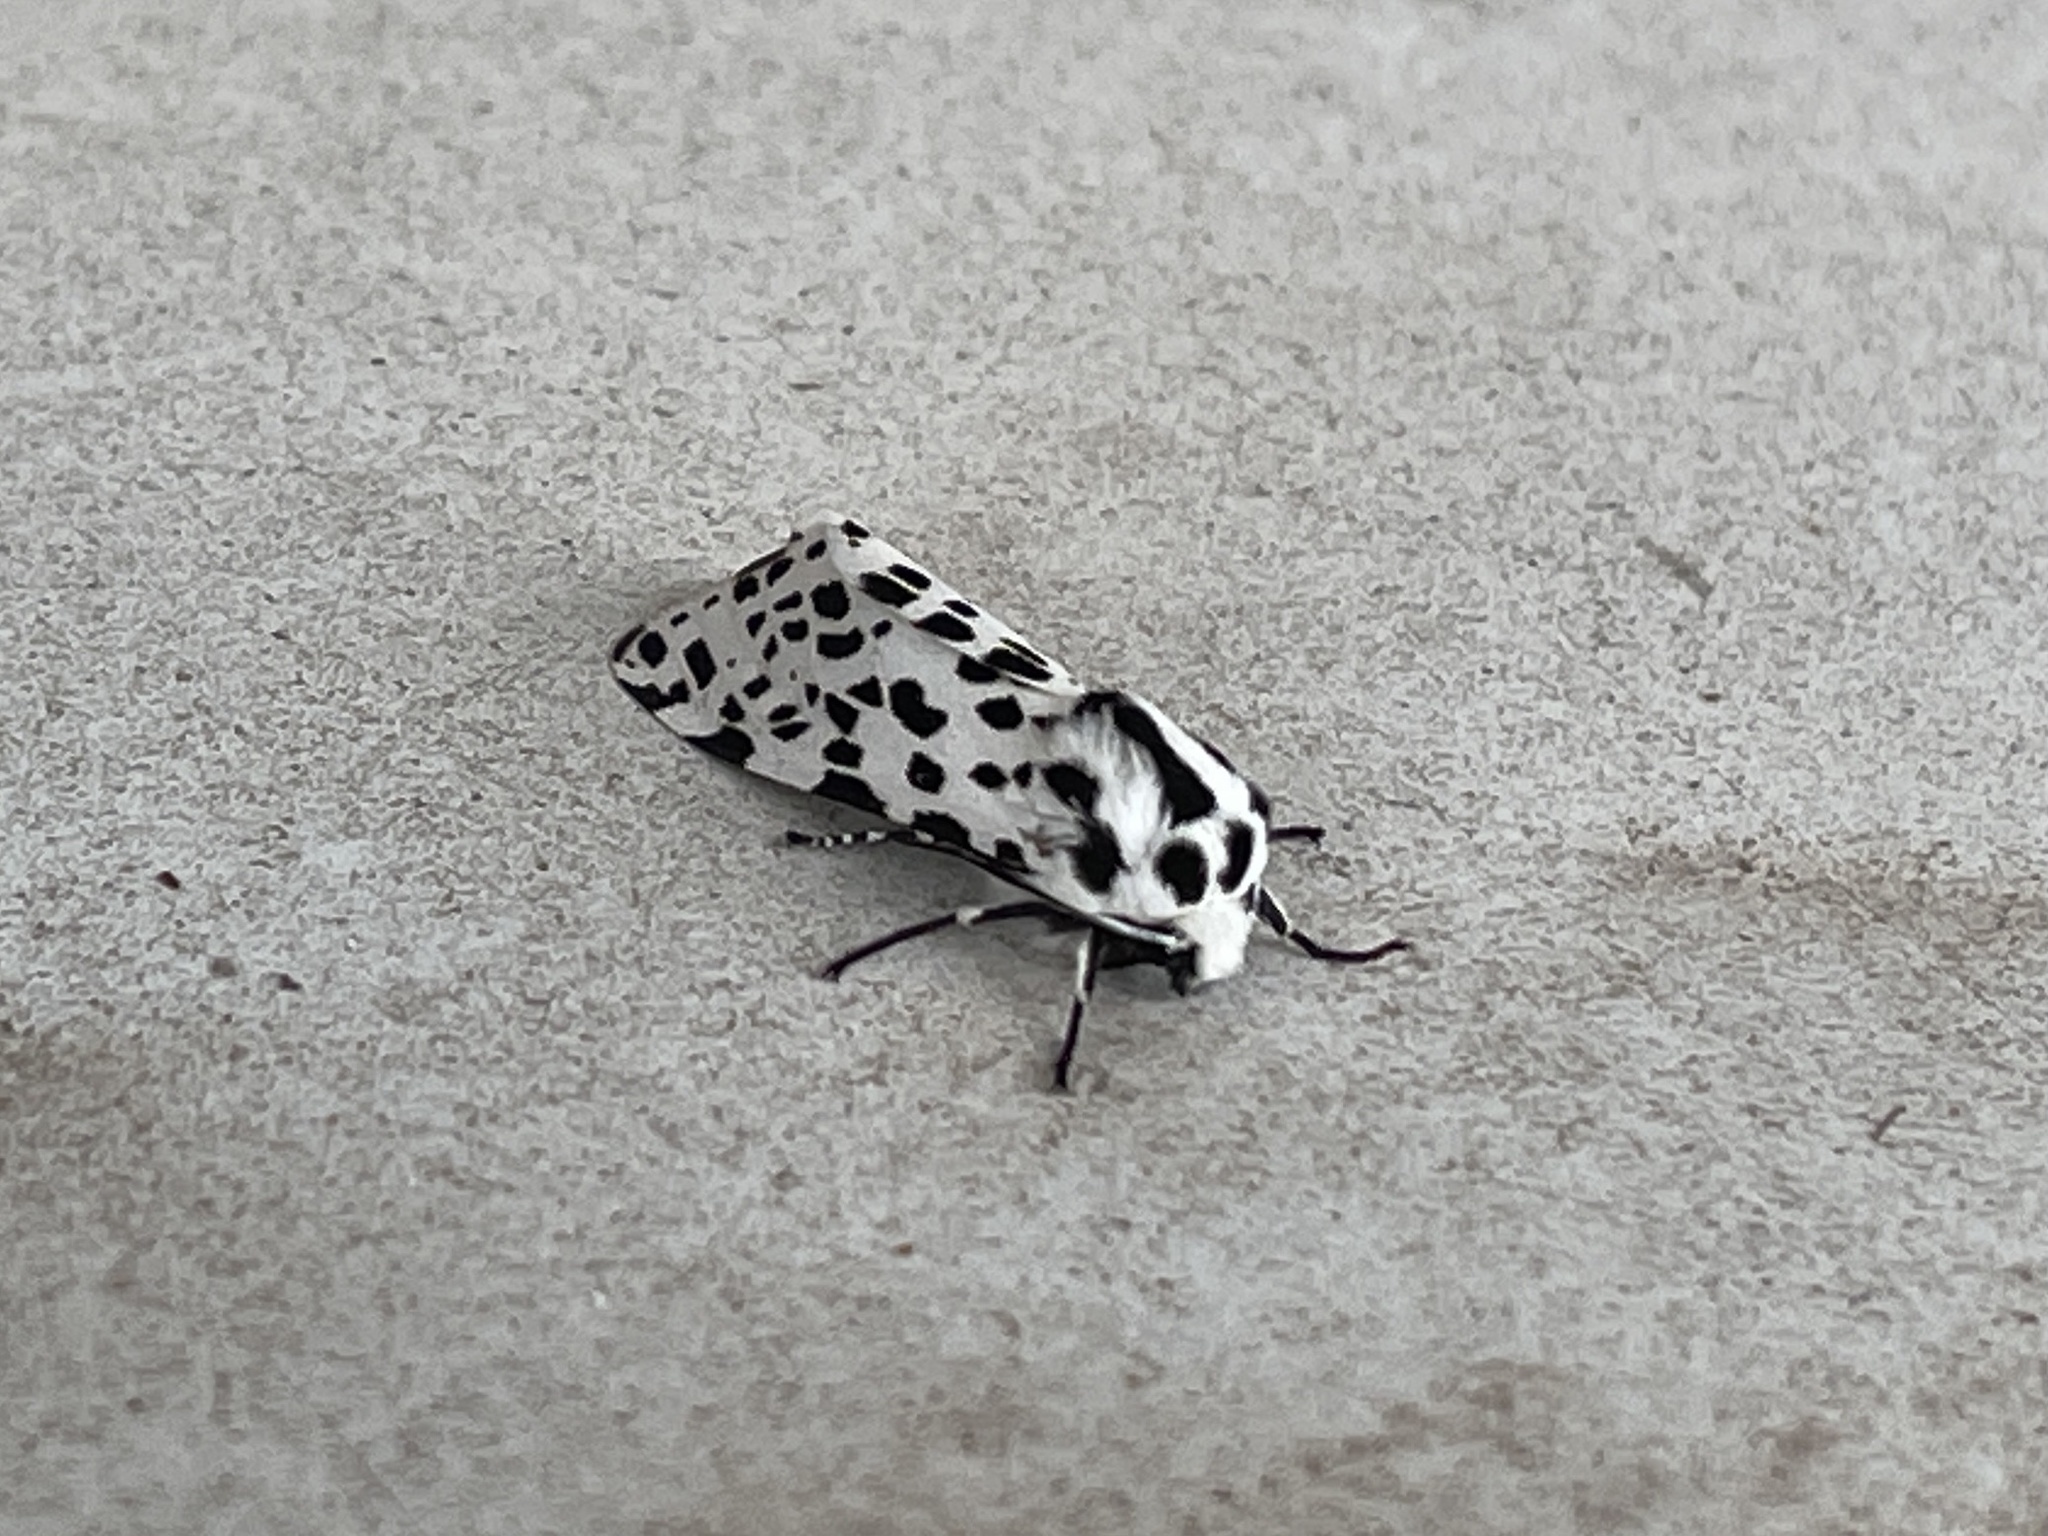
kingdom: Animalia
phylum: Arthropoda
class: Insecta
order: Lepidoptera
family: Erebidae
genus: Hypercompe
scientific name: Hypercompe permaculata
